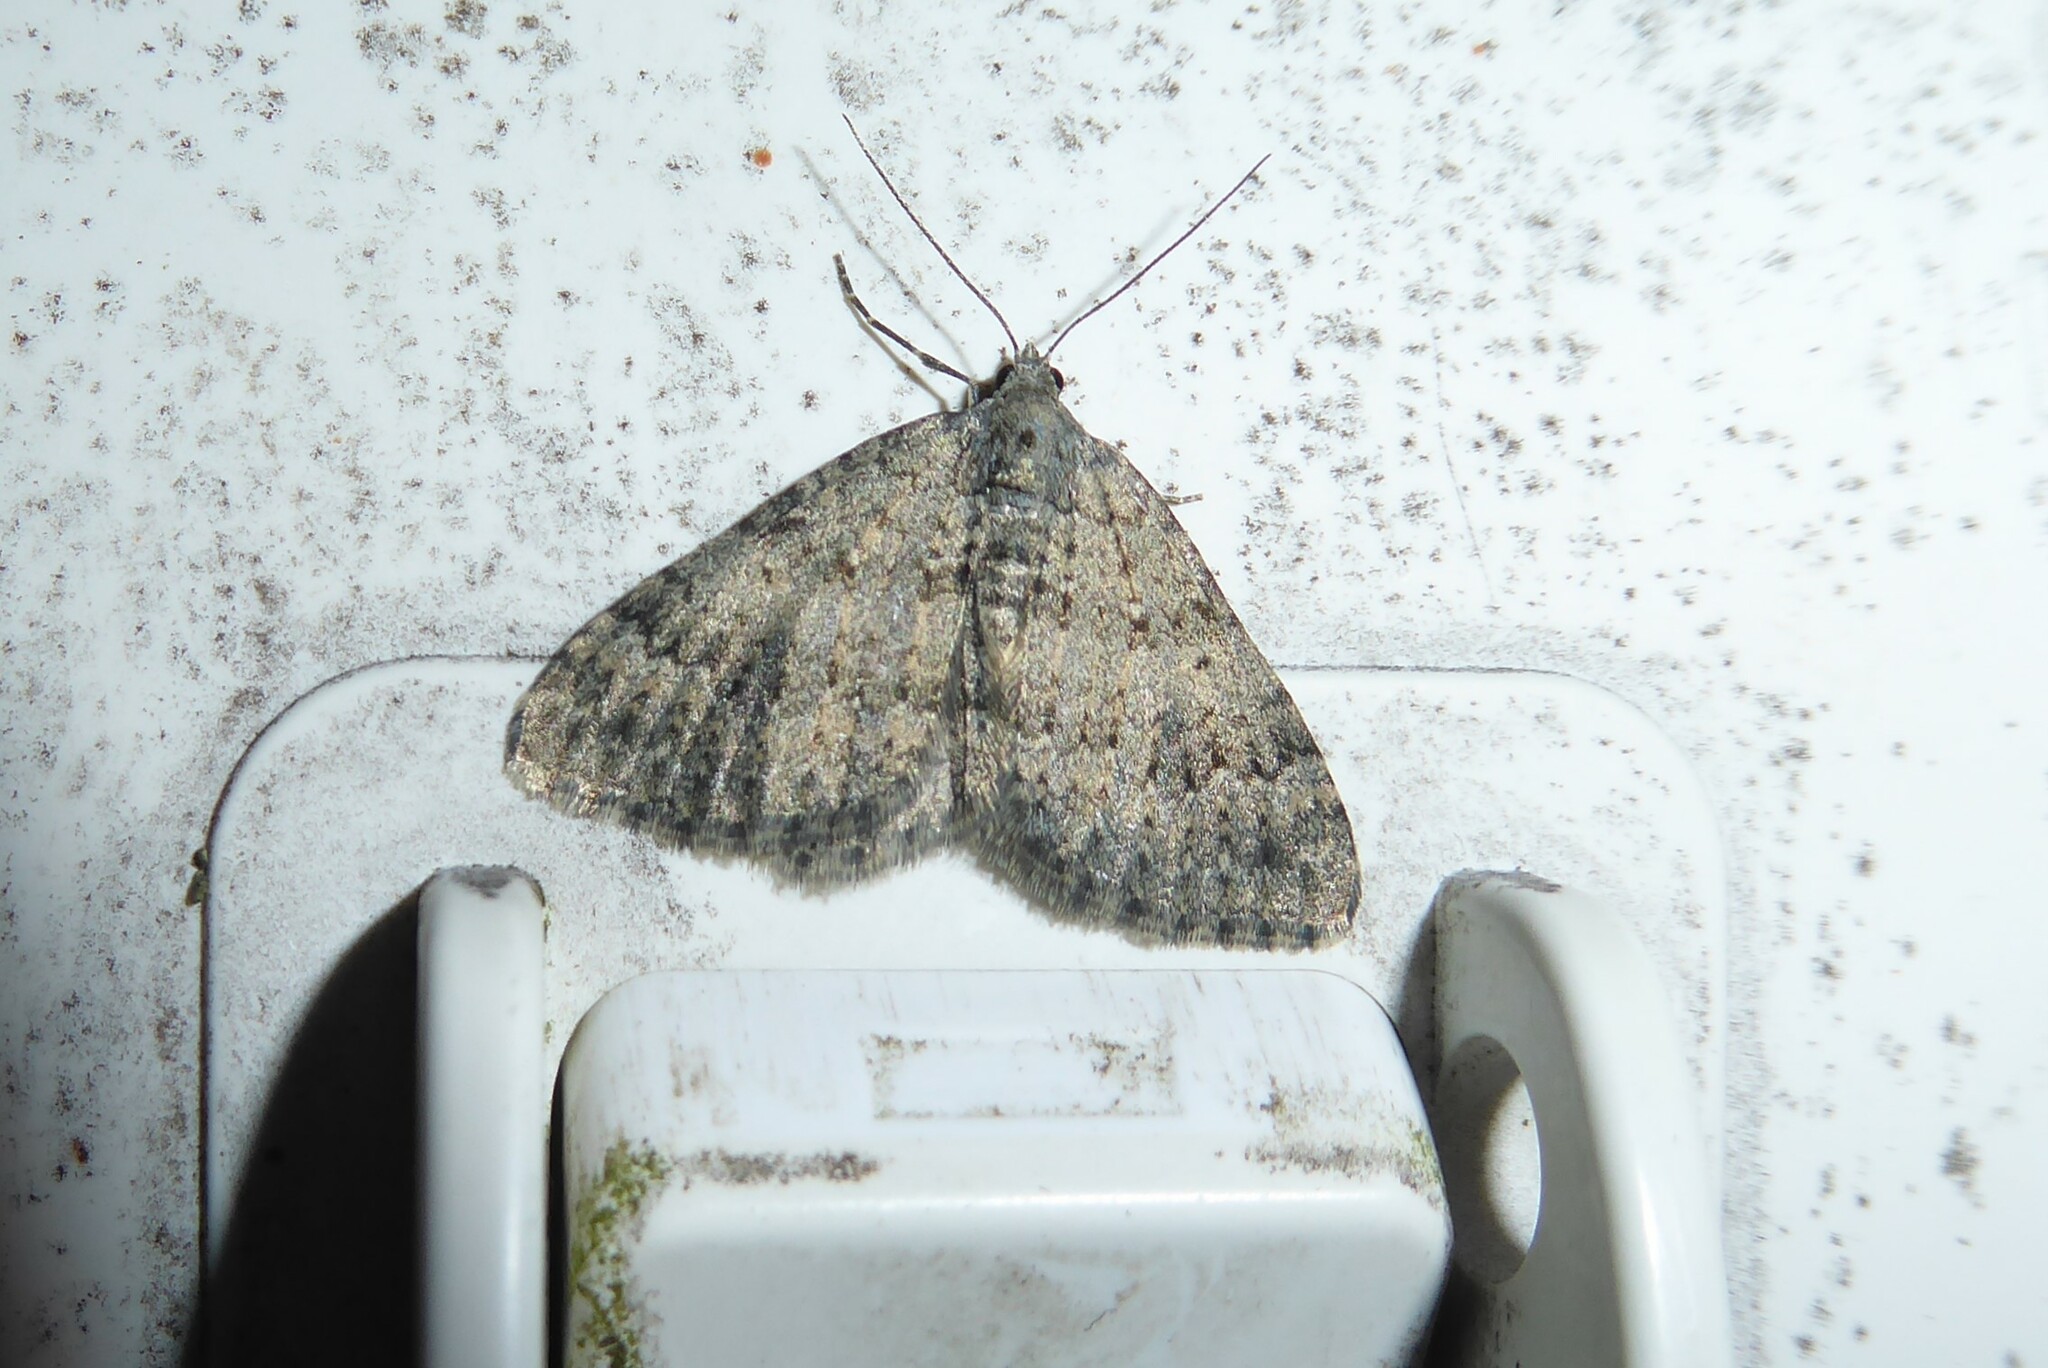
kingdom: Animalia
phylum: Arthropoda
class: Insecta
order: Lepidoptera
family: Geometridae
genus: Helastia
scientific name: Helastia corcularia
